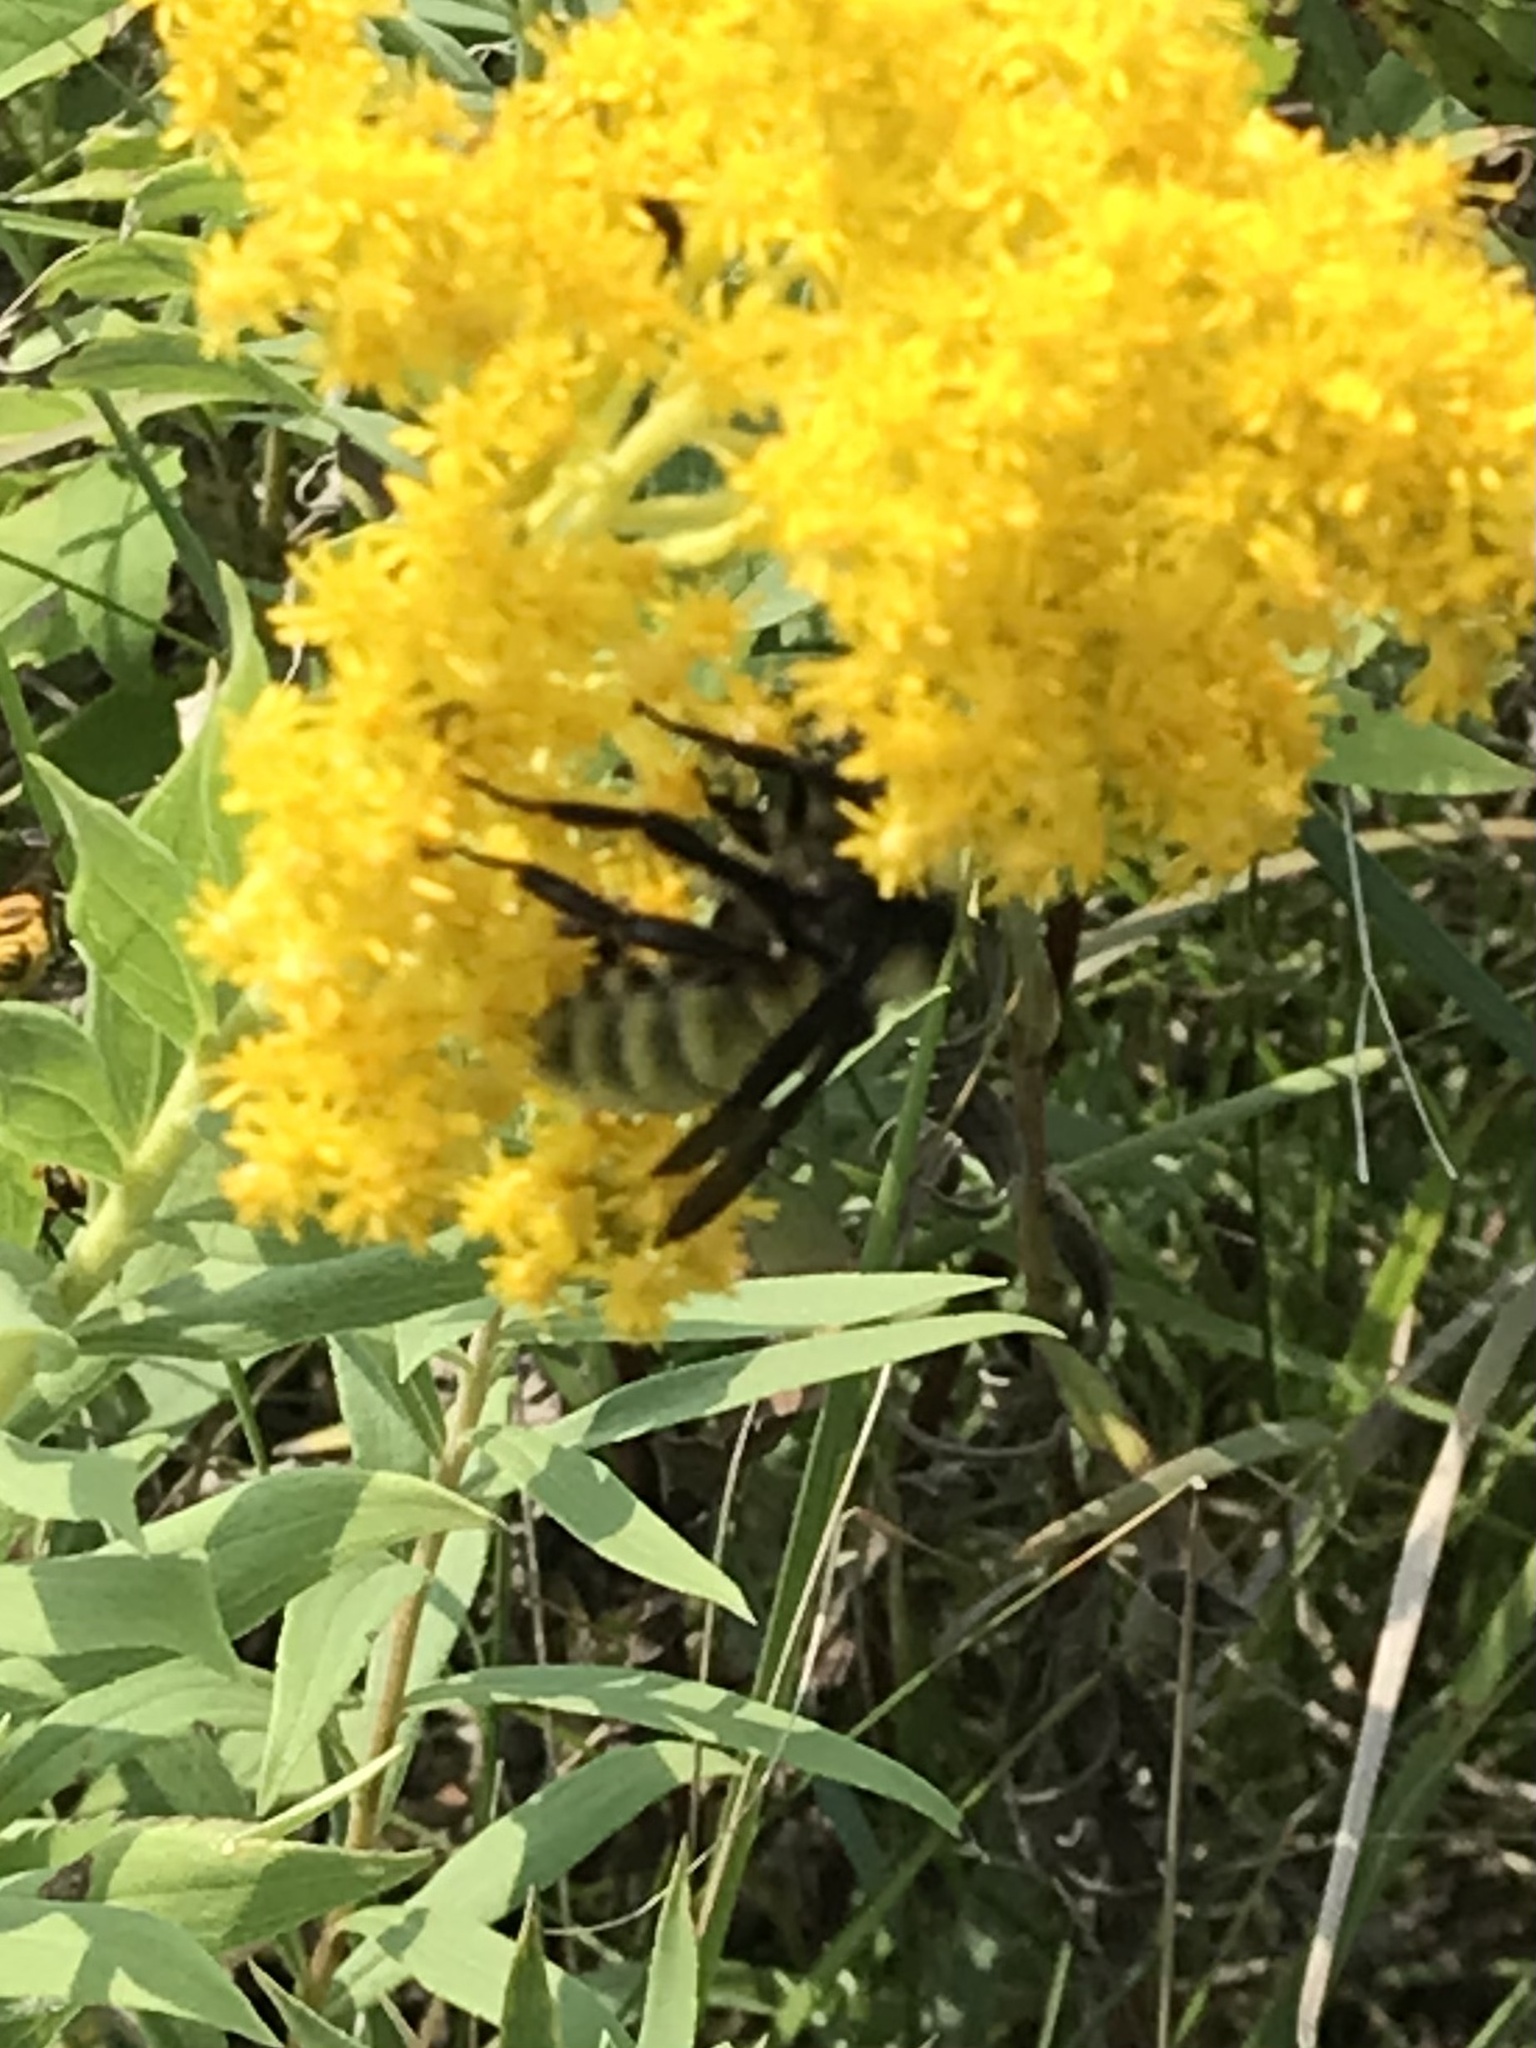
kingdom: Animalia
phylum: Arthropoda
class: Insecta
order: Hymenoptera
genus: Thoracobombus
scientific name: Thoracobombus
